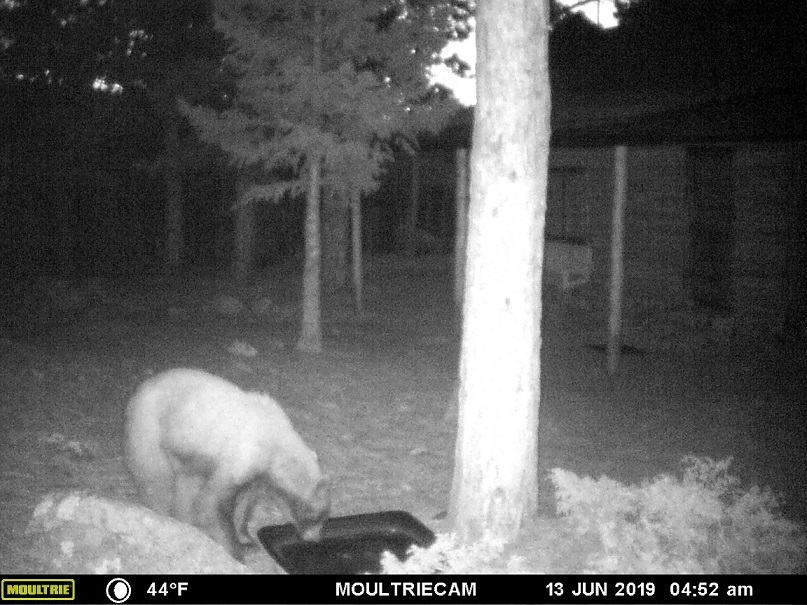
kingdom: Animalia
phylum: Chordata
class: Mammalia
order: Carnivora
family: Ursidae
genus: Ursus
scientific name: Ursus americanus
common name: American black bear
